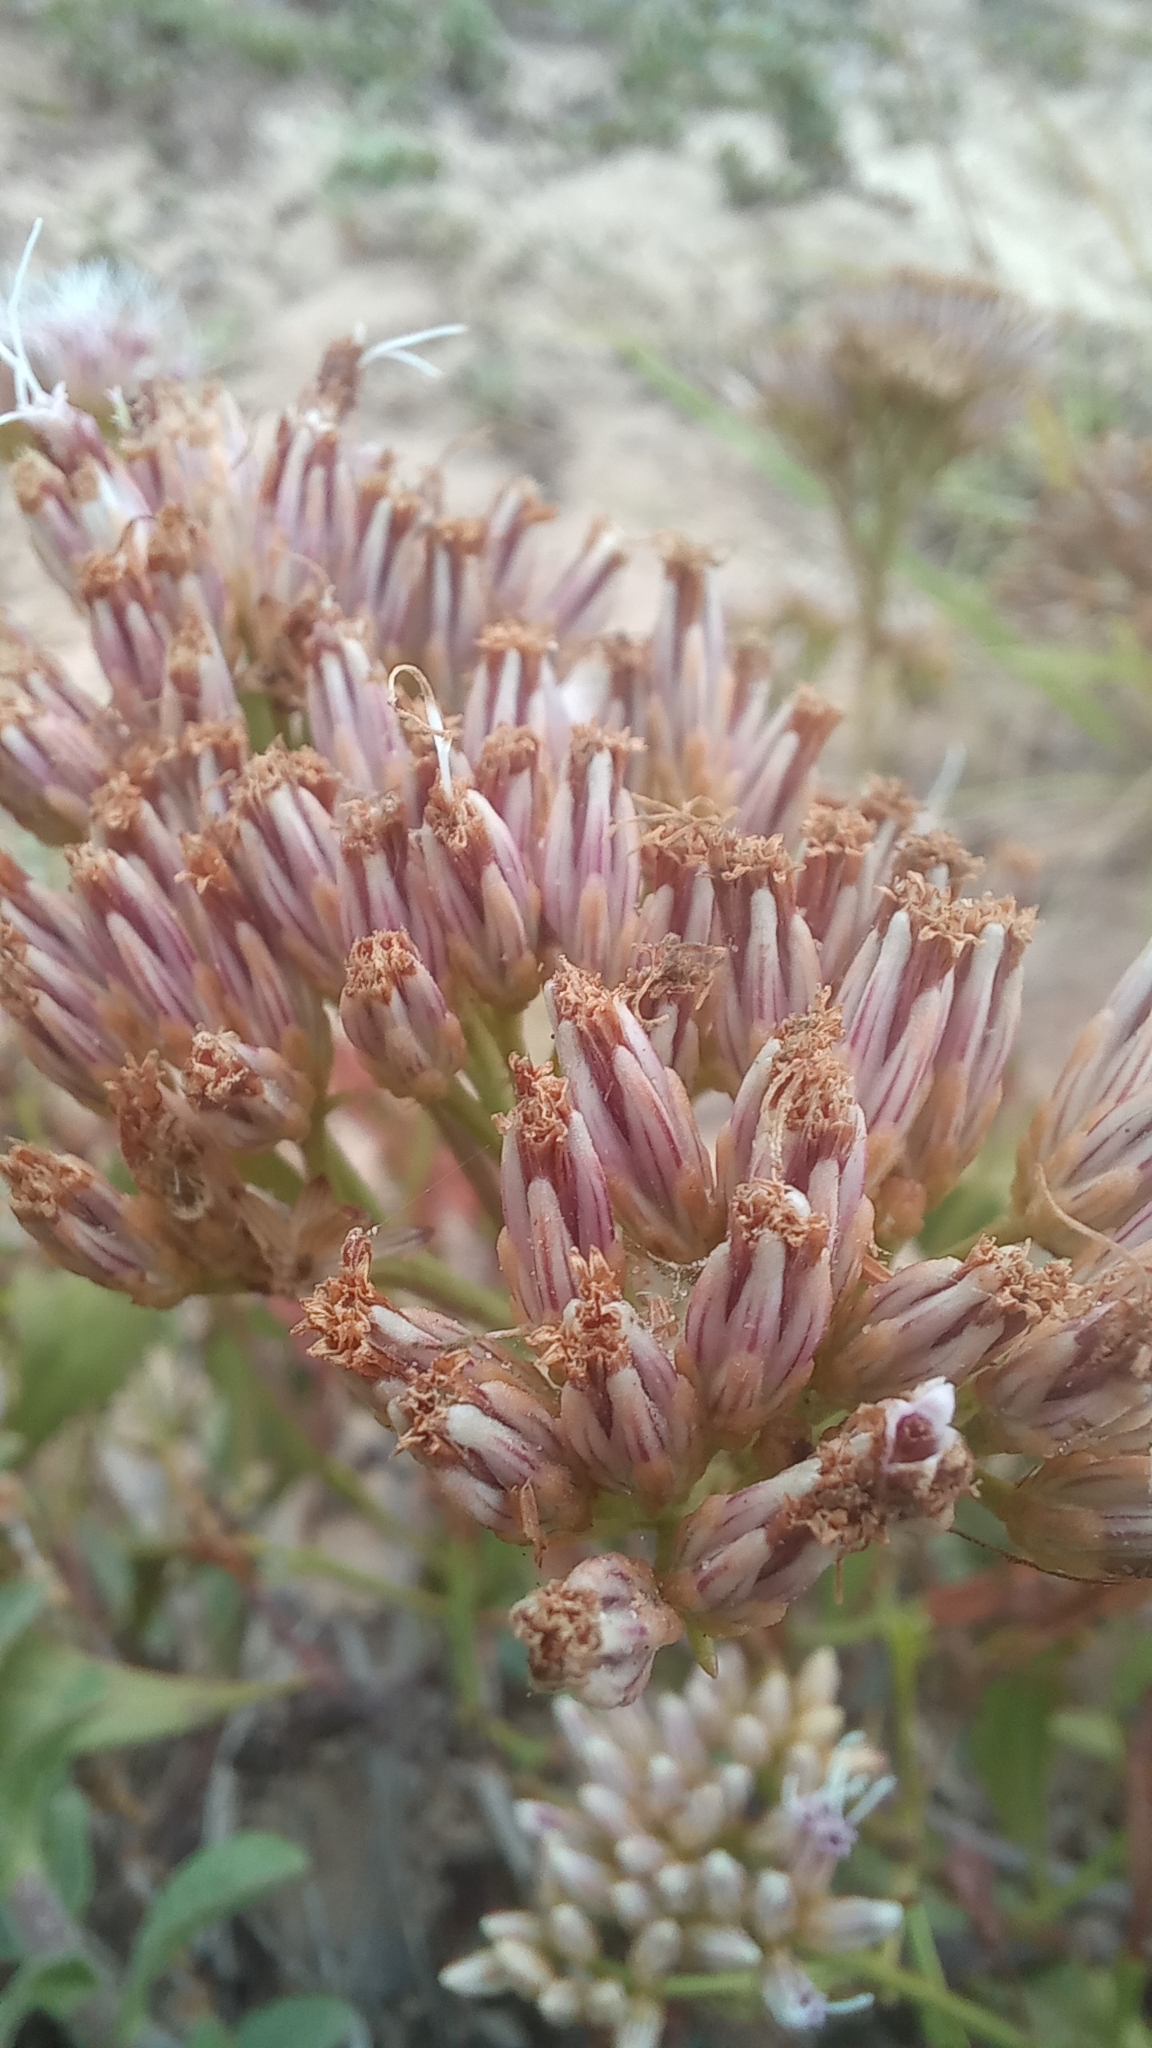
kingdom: Plantae
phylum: Tracheophyta
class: Magnoliopsida
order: Asterales
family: Asteraceae
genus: Symphyopappus
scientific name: Symphyopappus casarettoi
